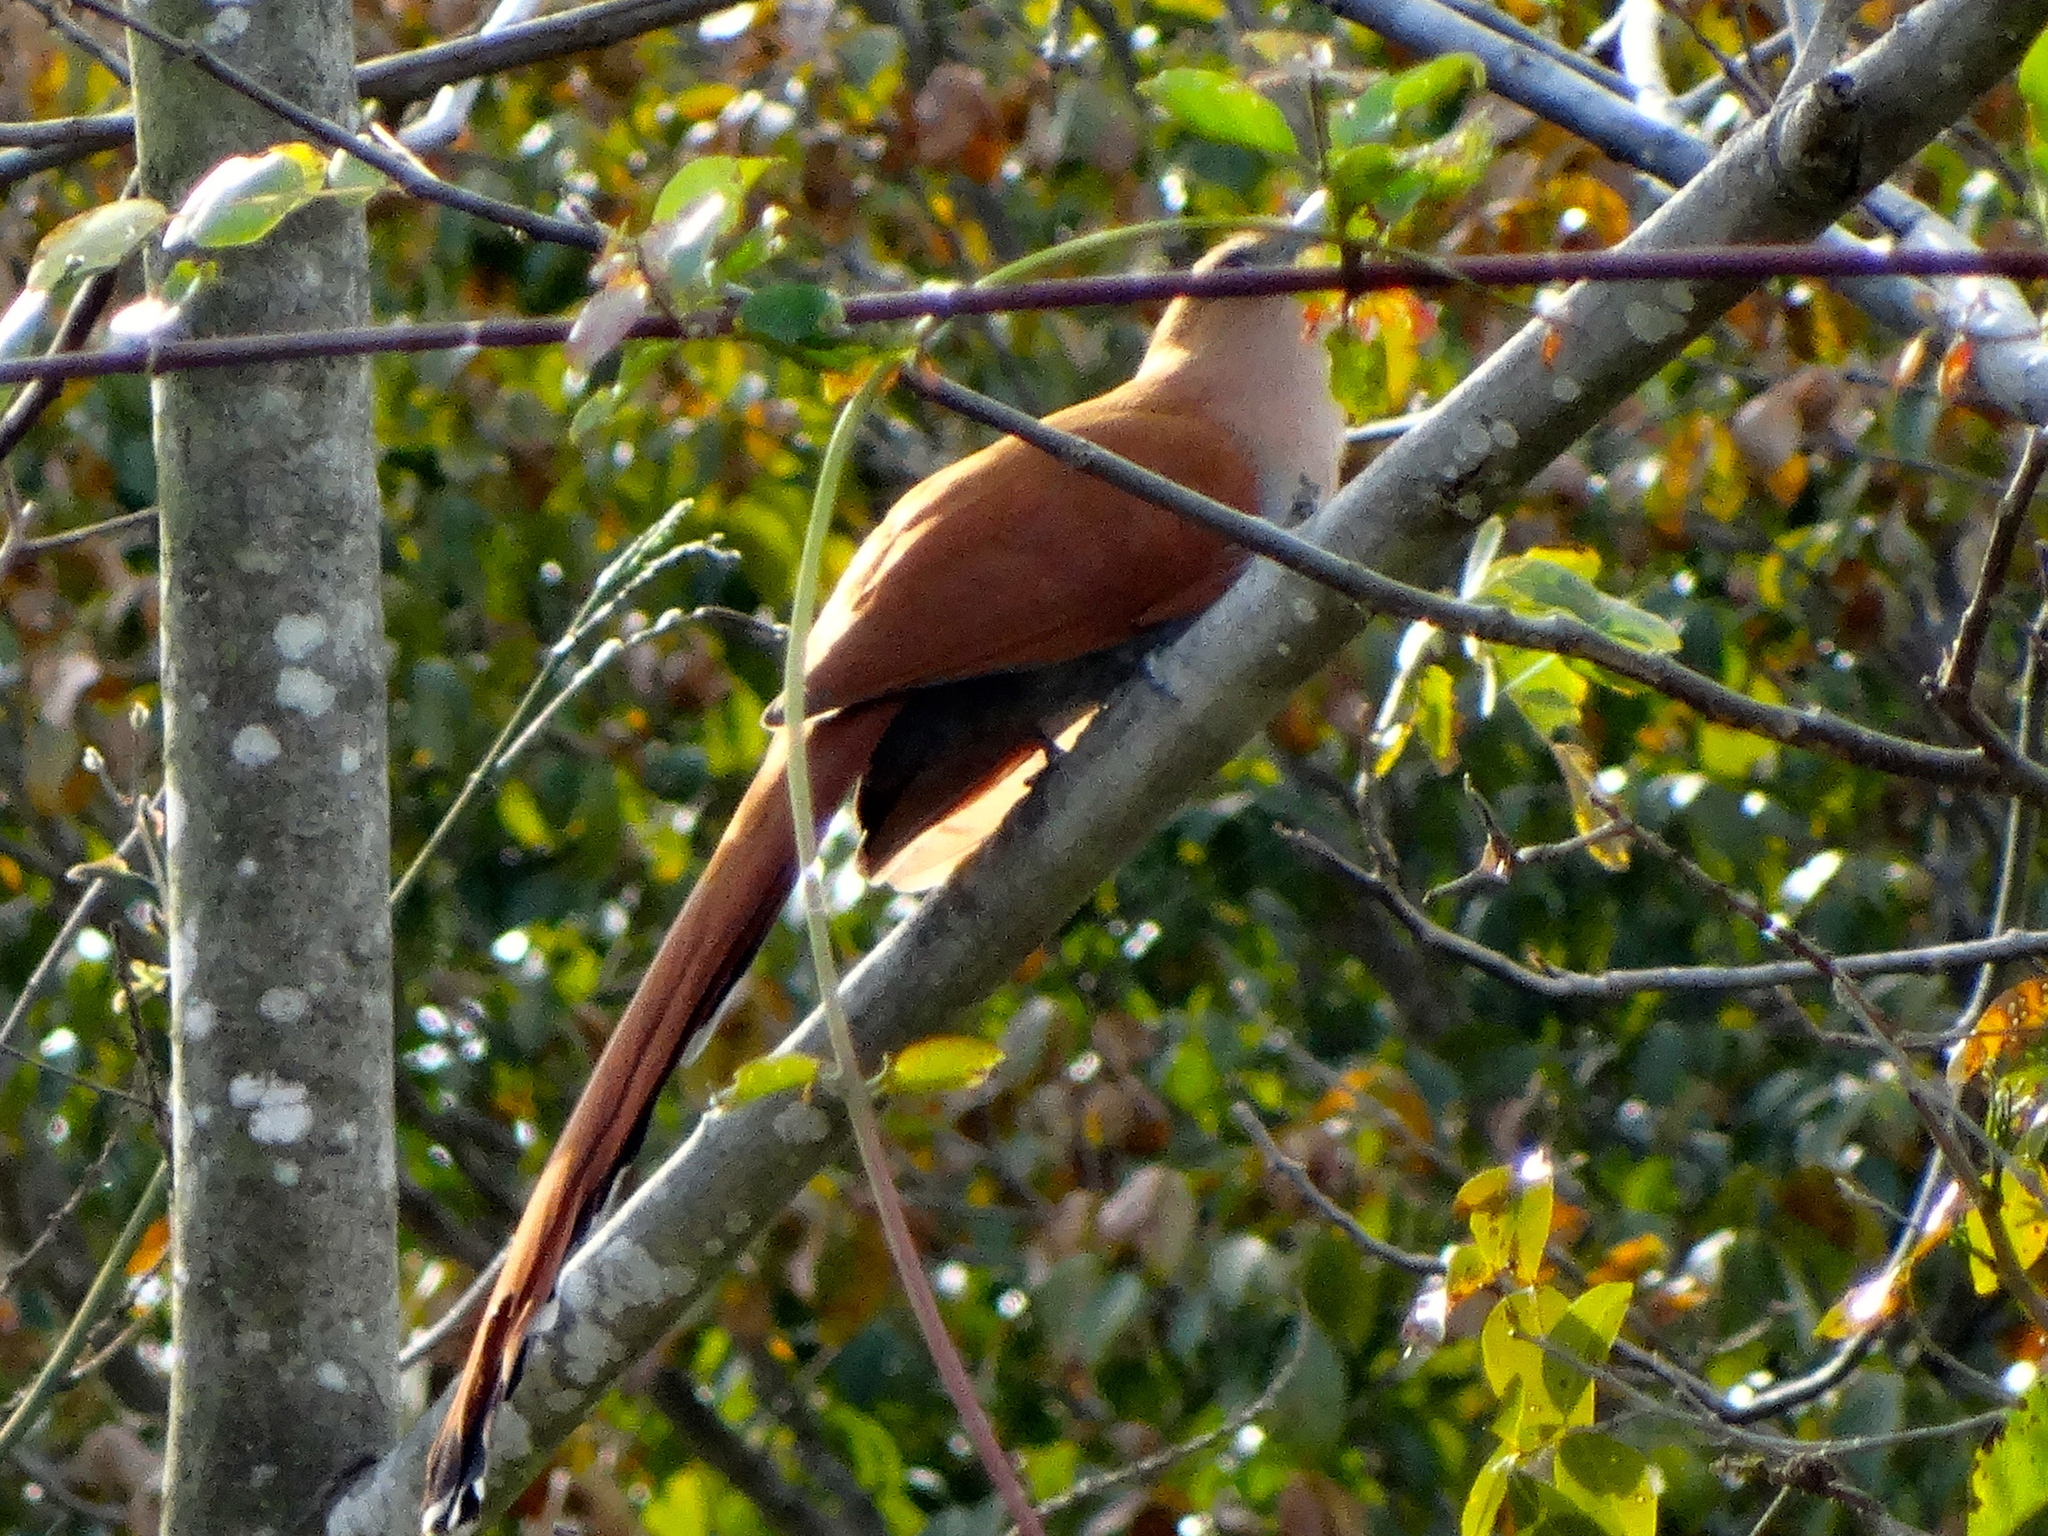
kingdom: Animalia
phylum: Chordata
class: Aves
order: Cuculiformes
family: Cuculidae
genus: Piaya
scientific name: Piaya cayana
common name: Squirrel cuckoo
